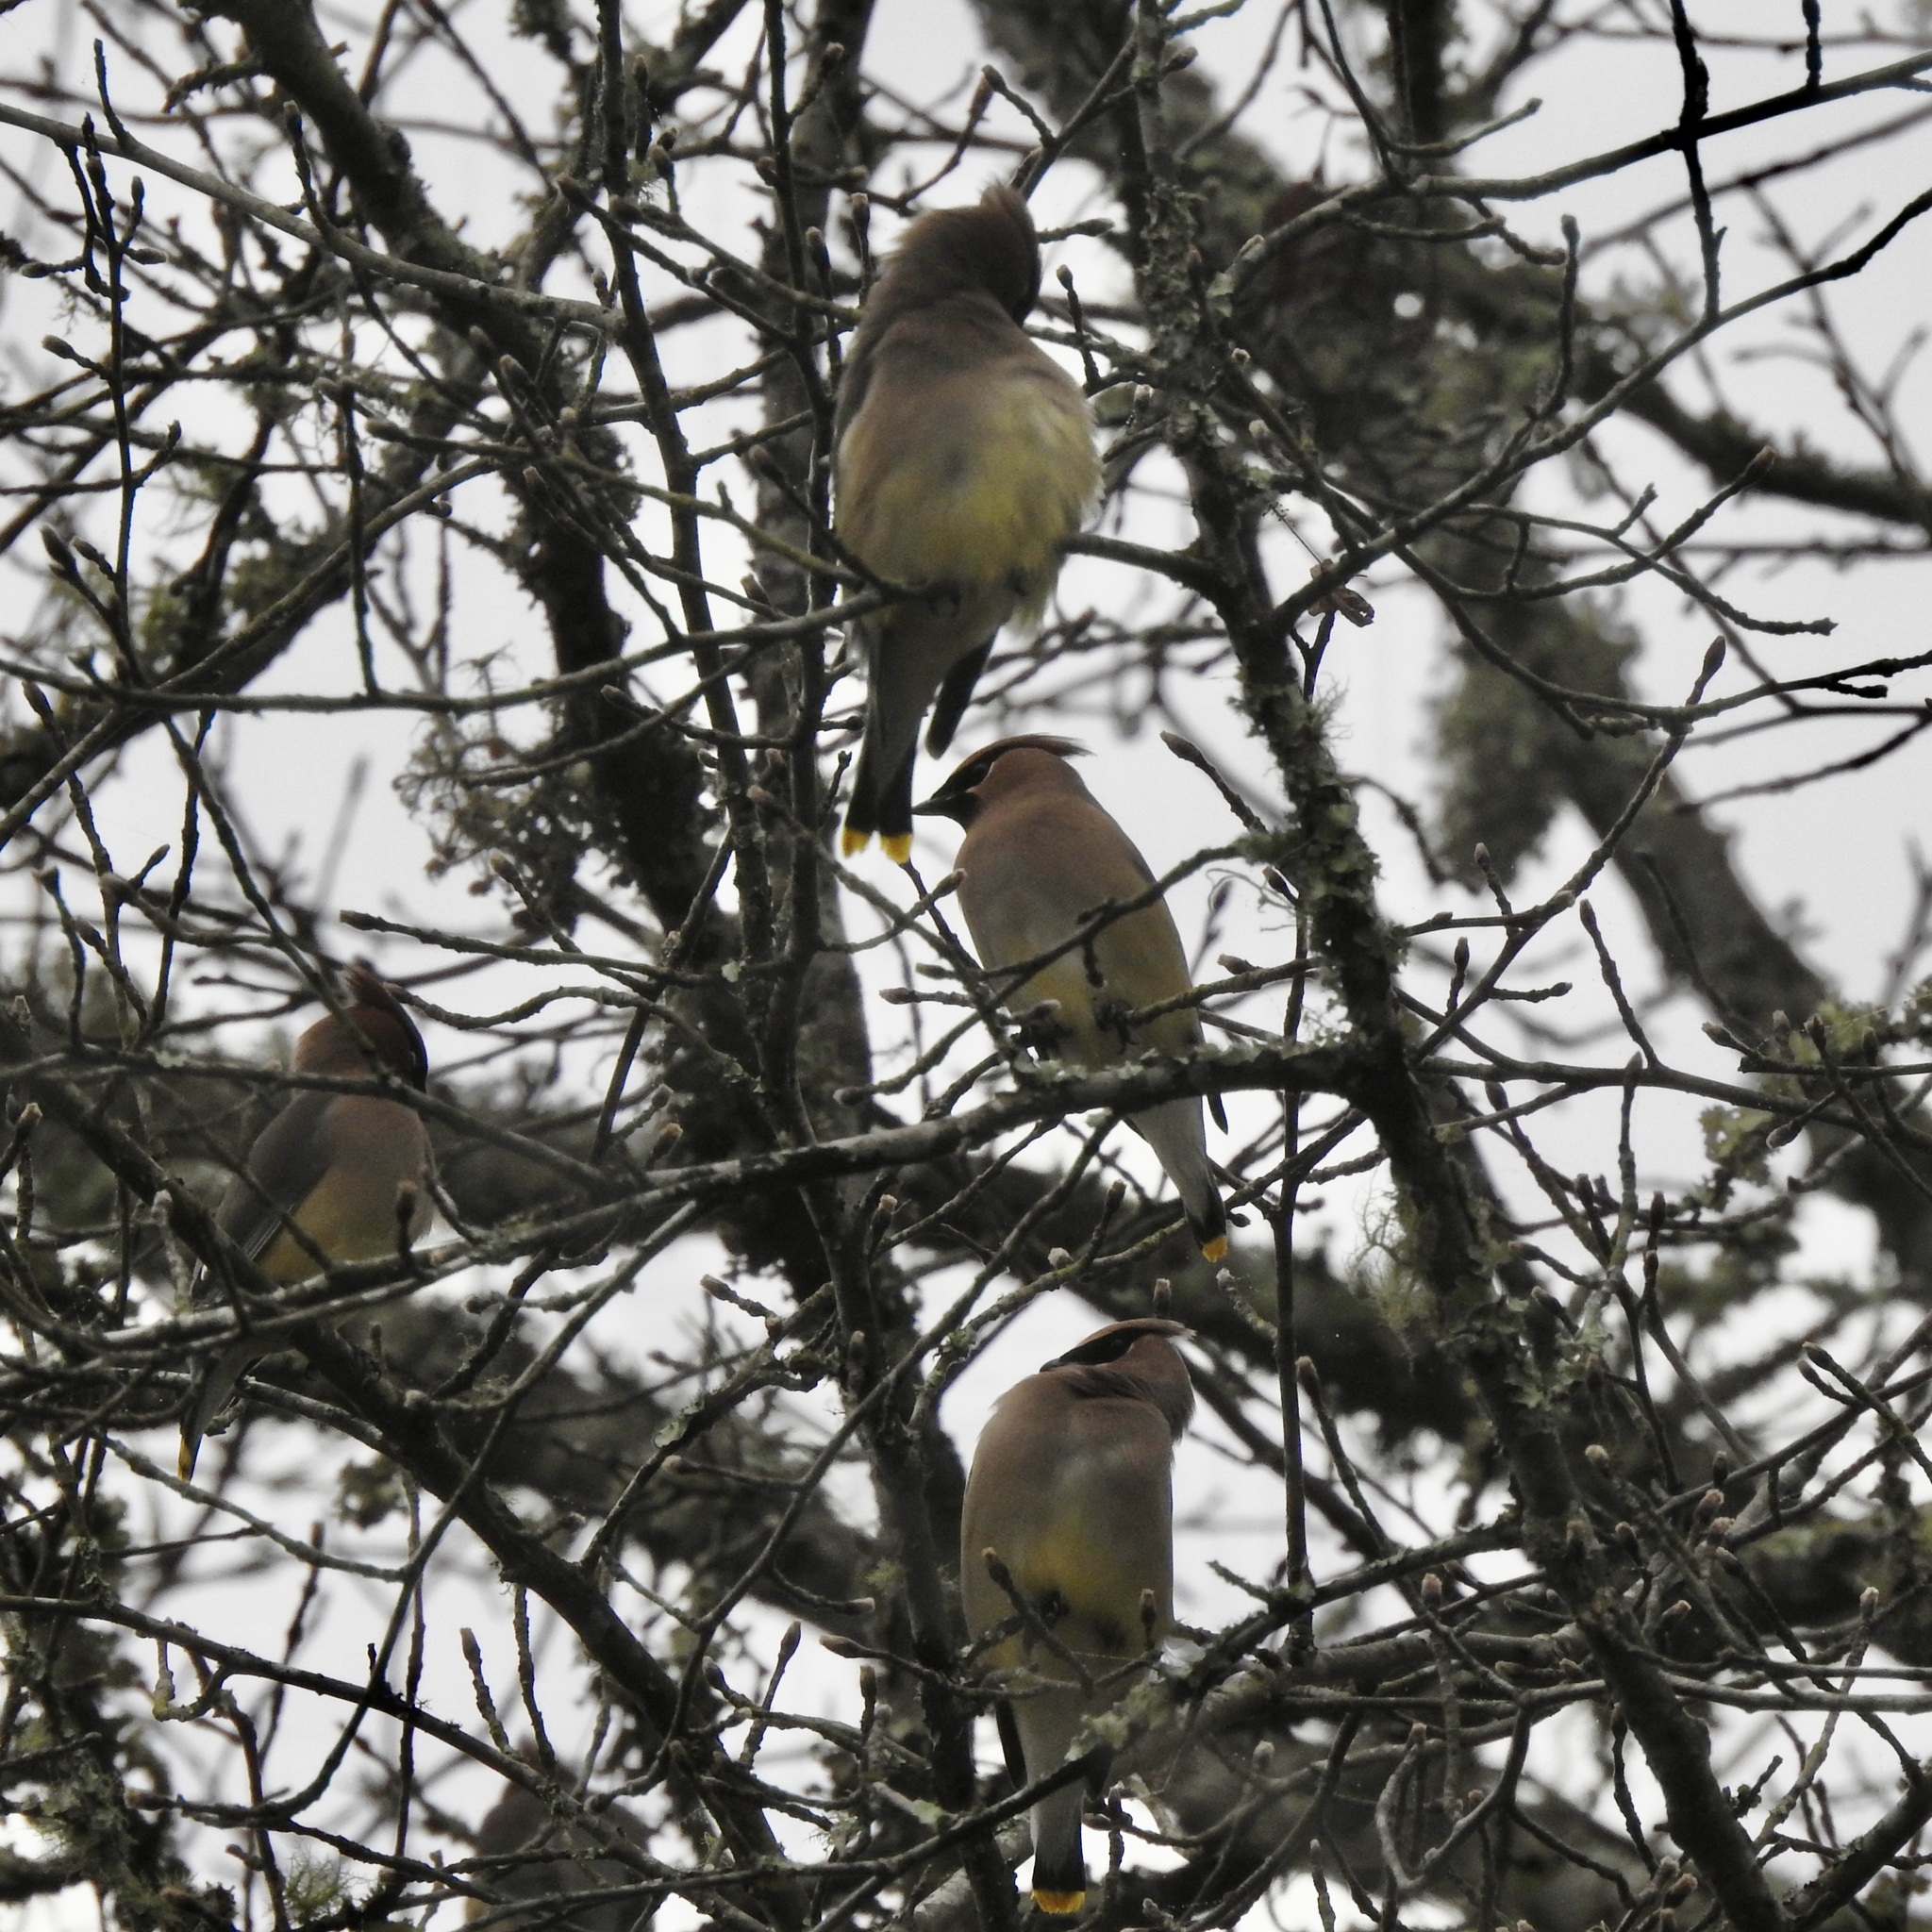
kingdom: Animalia
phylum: Chordata
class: Aves
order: Passeriformes
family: Bombycillidae
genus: Bombycilla
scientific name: Bombycilla cedrorum
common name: Cedar waxwing
